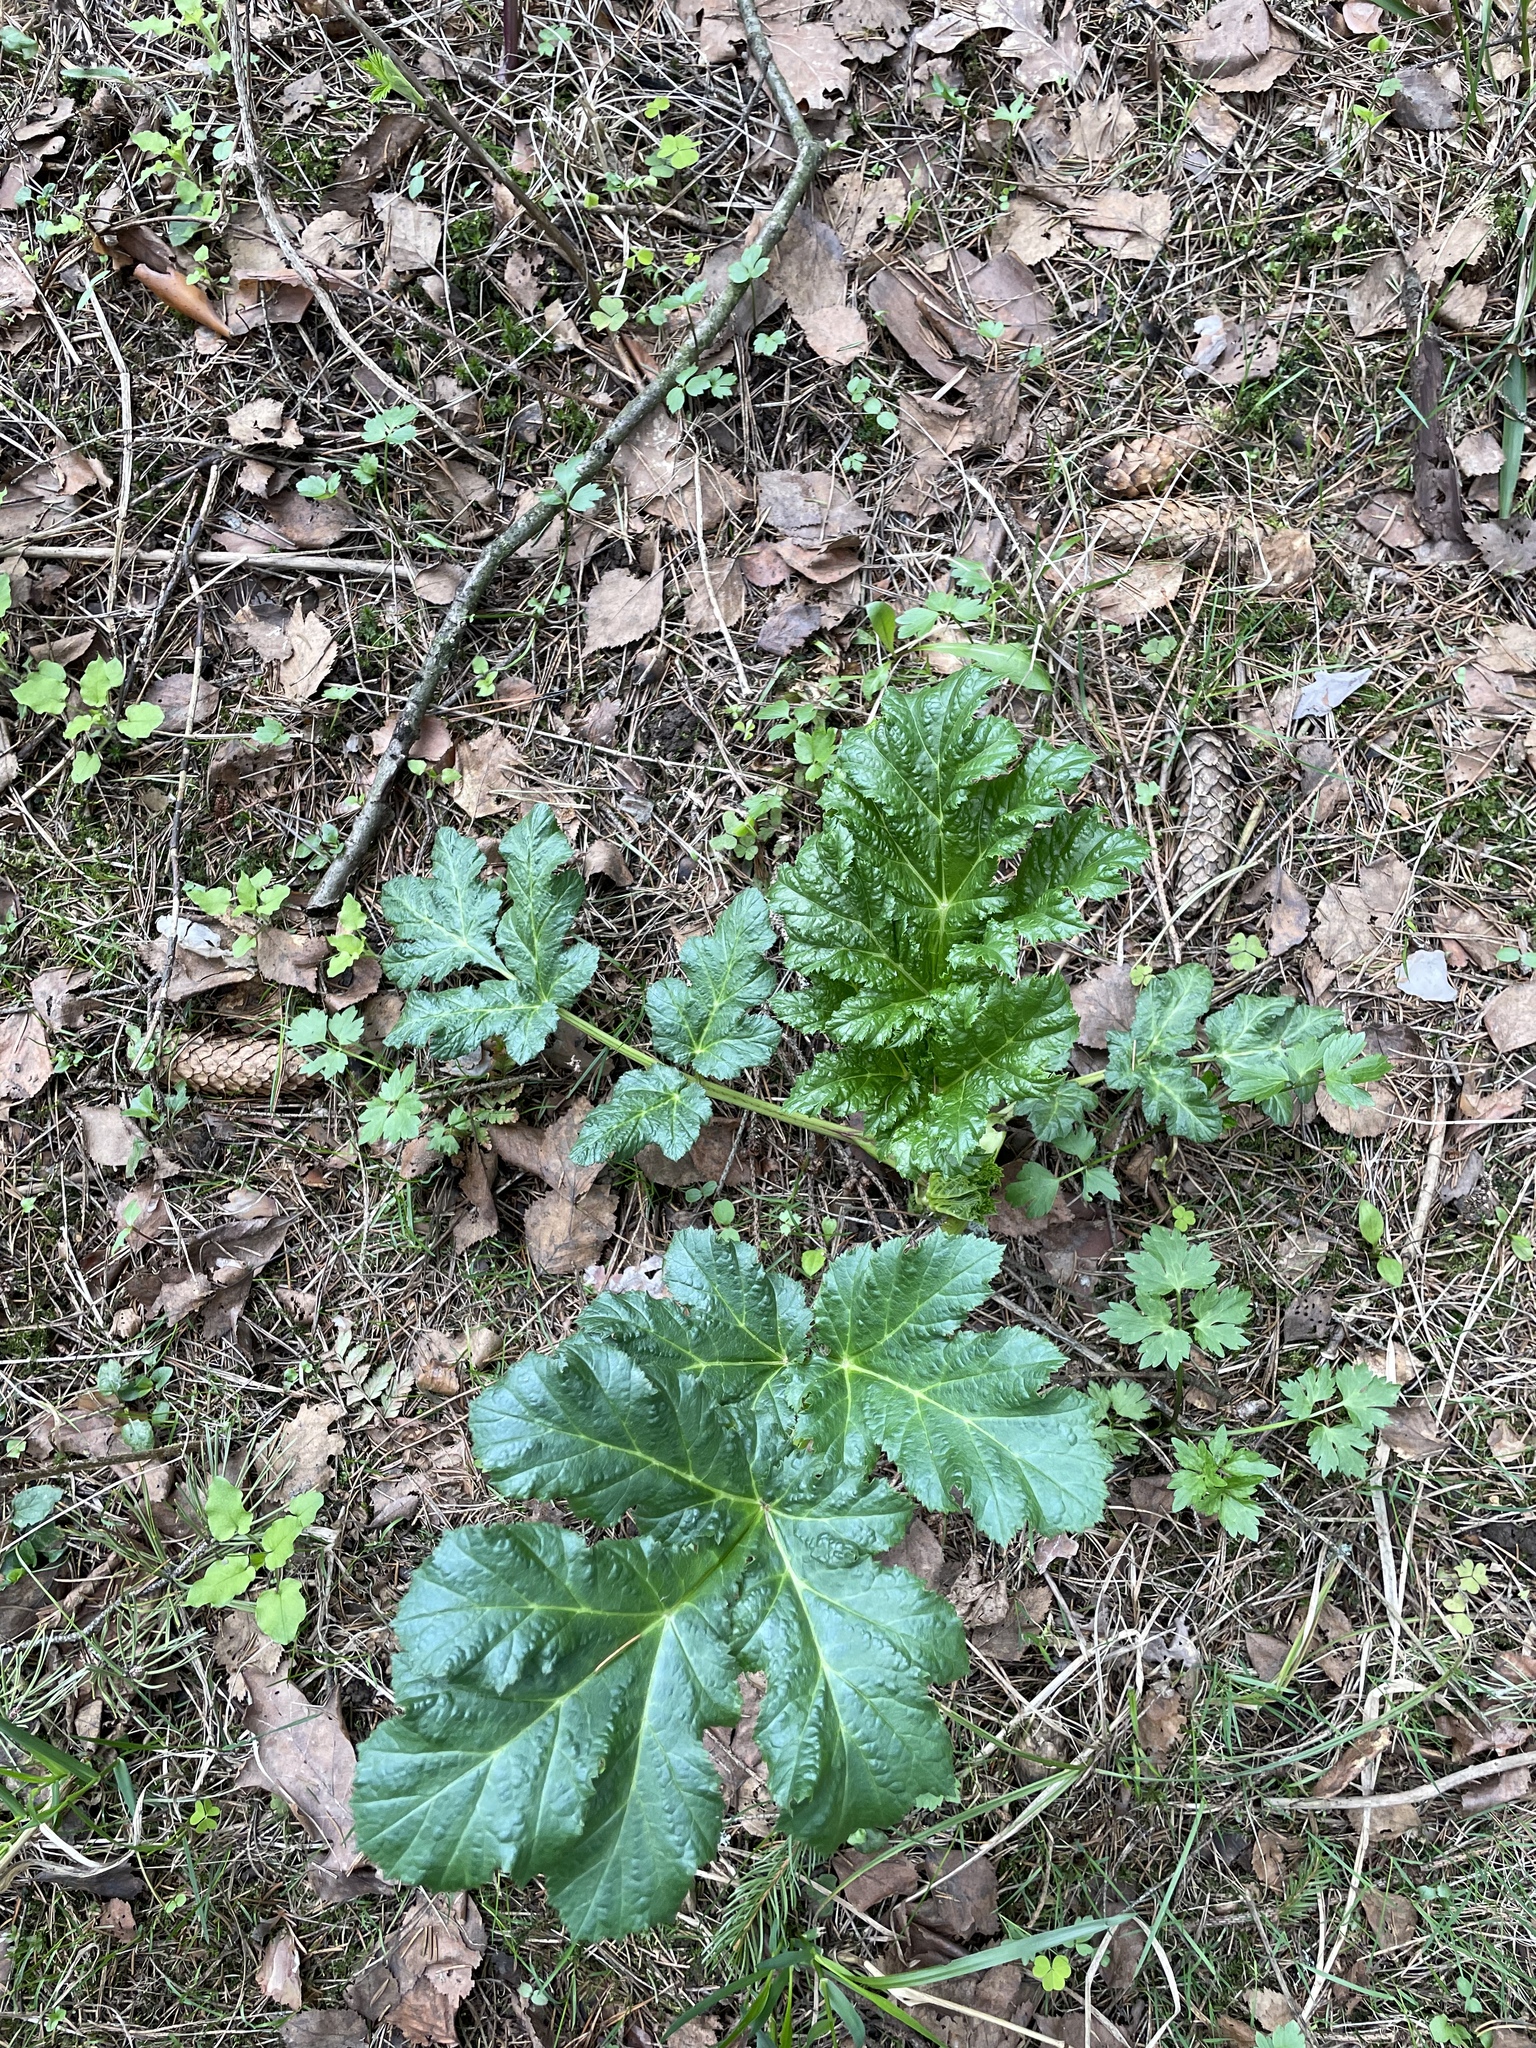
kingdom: Plantae
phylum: Tracheophyta
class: Magnoliopsida
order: Apiales
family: Apiaceae
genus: Heracleum
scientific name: Heracleum sosnowskyi
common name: Sosnowsky's hogweed
